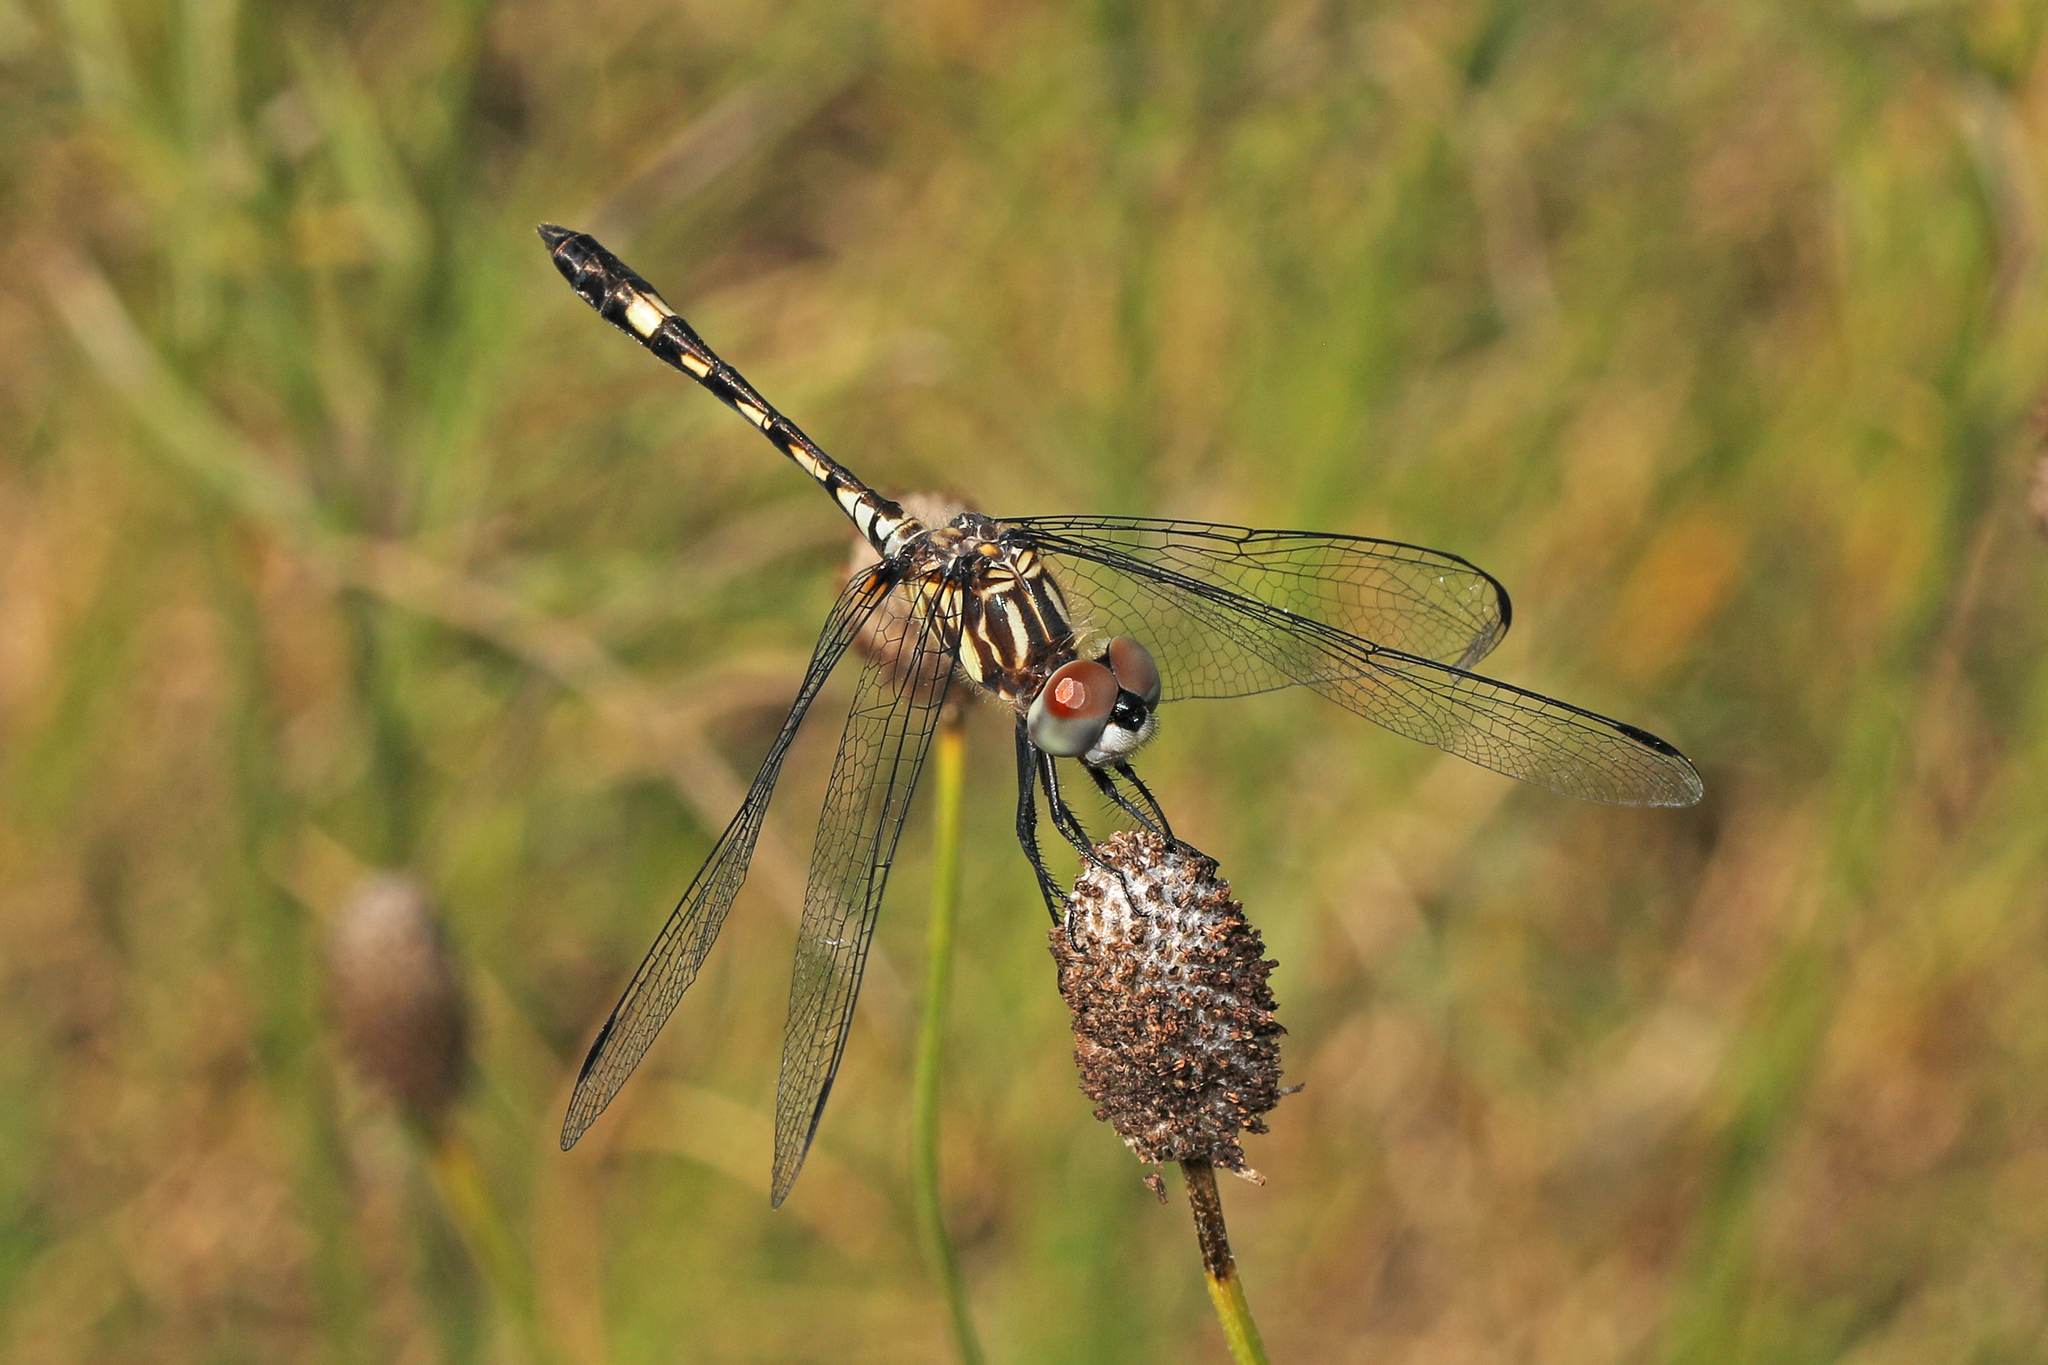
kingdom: Animalia
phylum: Arthropoda
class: Insecta
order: Odonata
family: Libellulidae
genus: Micrathyria
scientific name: Micrathyria hagenii
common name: Thornbush dasher
